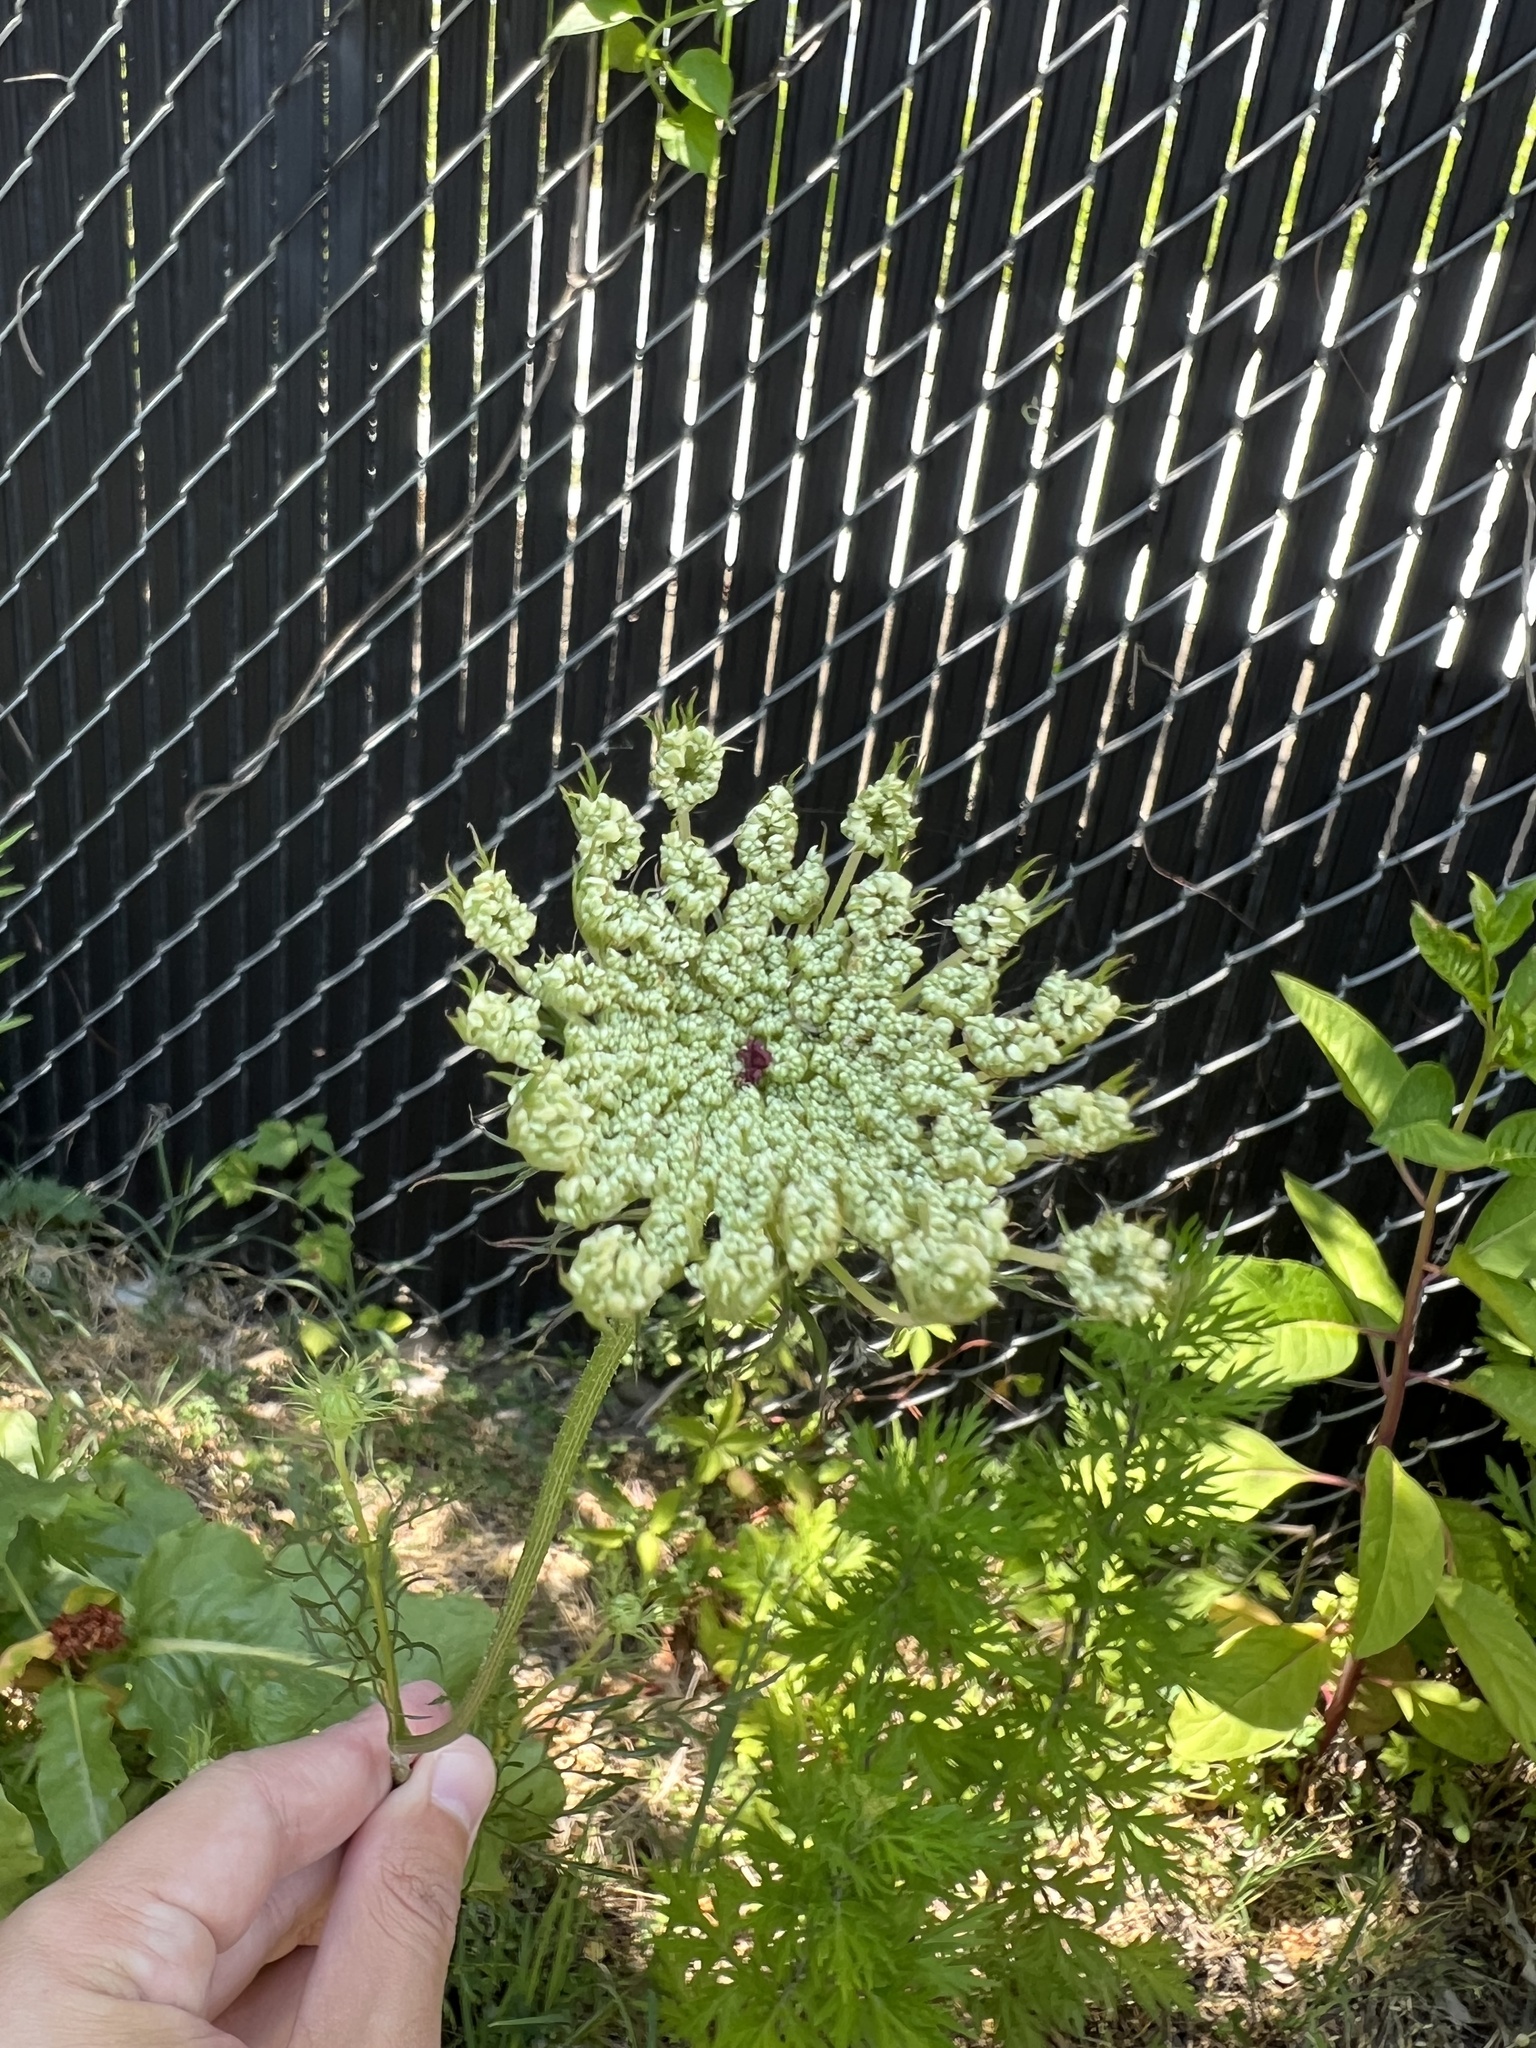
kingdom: Plantae
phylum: Tracheophyta
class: Magnoliopsida
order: Apiales
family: Apiaceae
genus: Daucus
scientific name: Daucus carota
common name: Wild carrot
